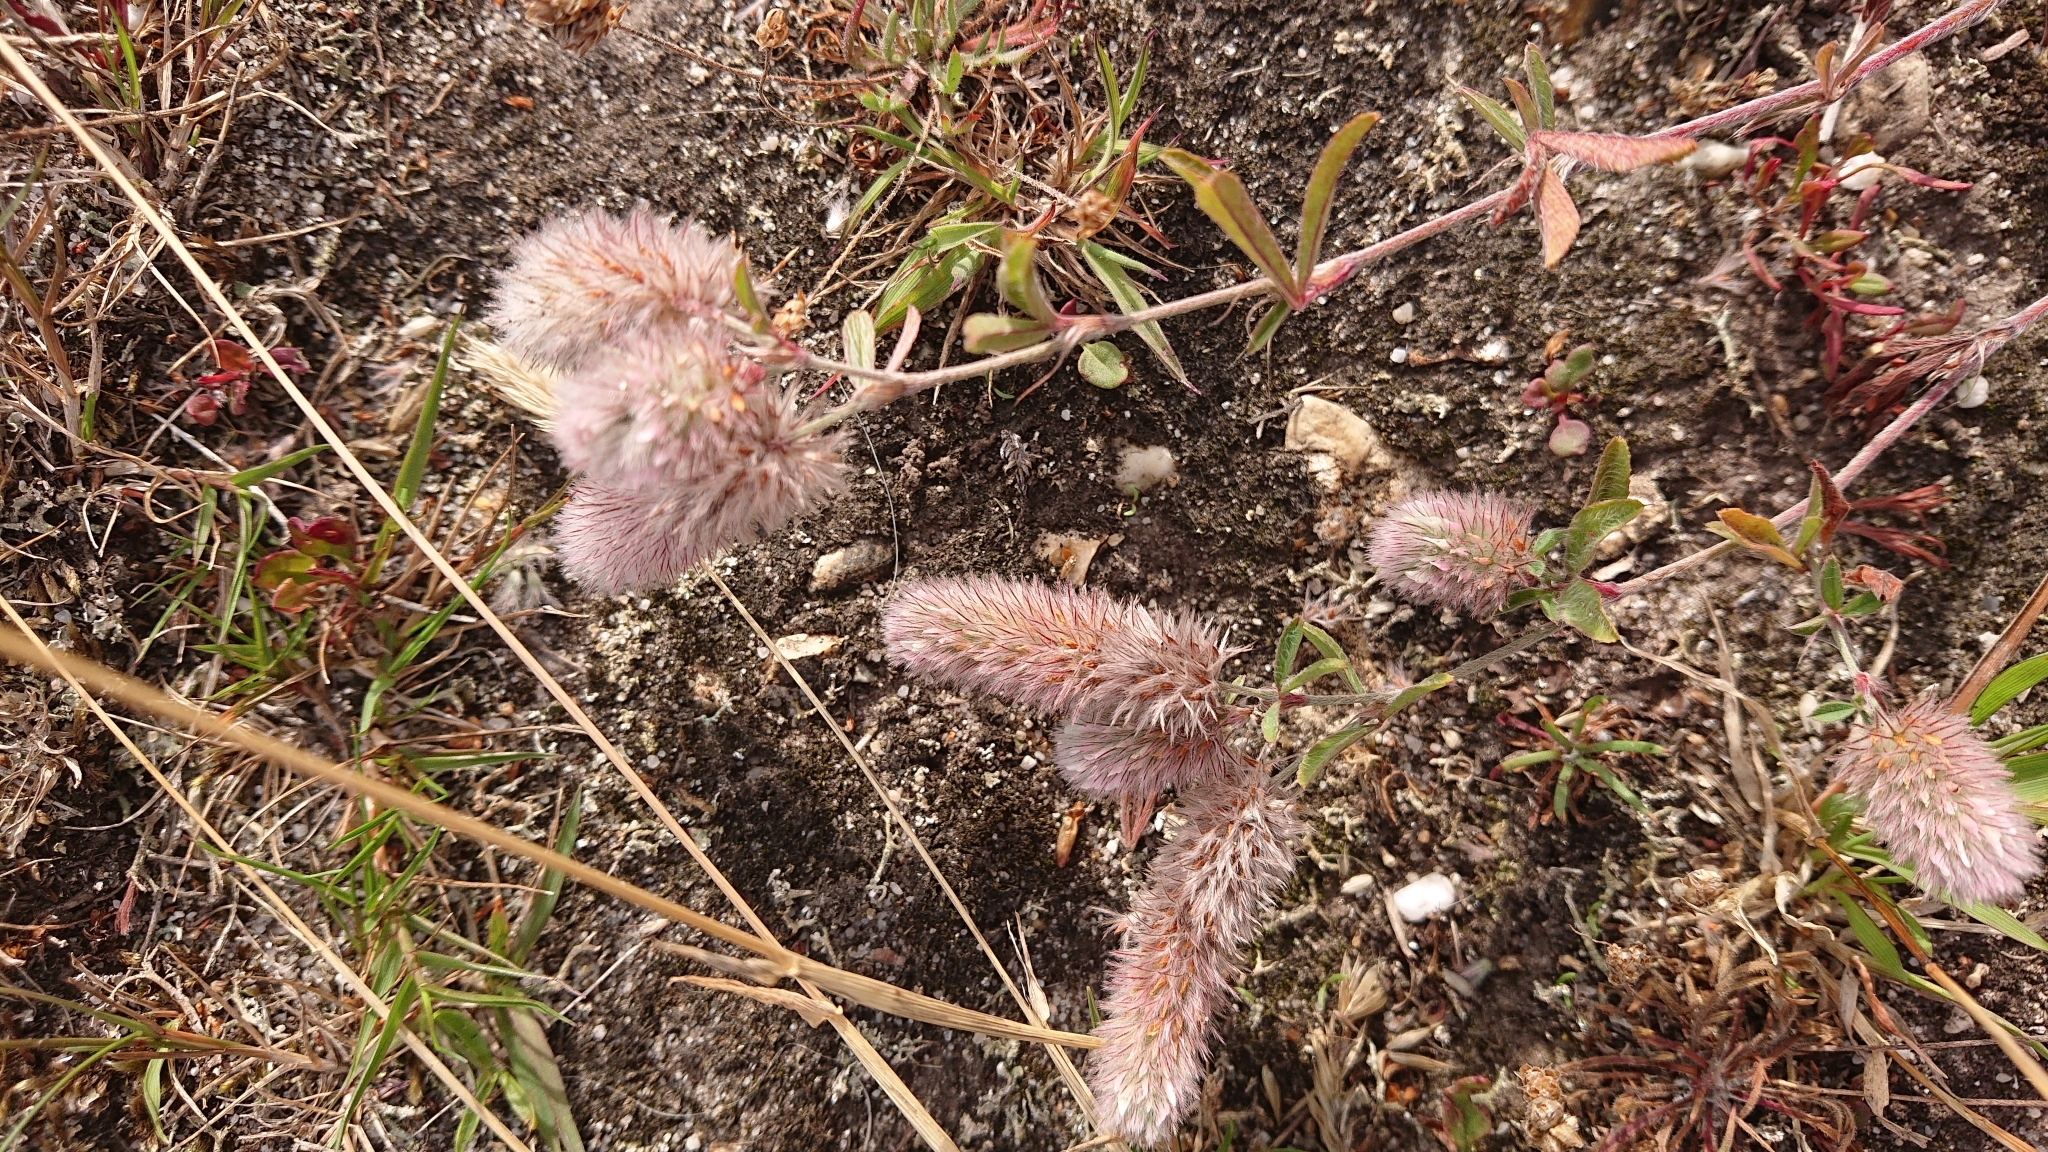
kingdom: Plantae
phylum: Tracheophyta
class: Magnoliopsida
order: Fabales
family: Fabaceae
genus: Trifolium
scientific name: Trifolium arvense
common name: Hare's-foot clover
